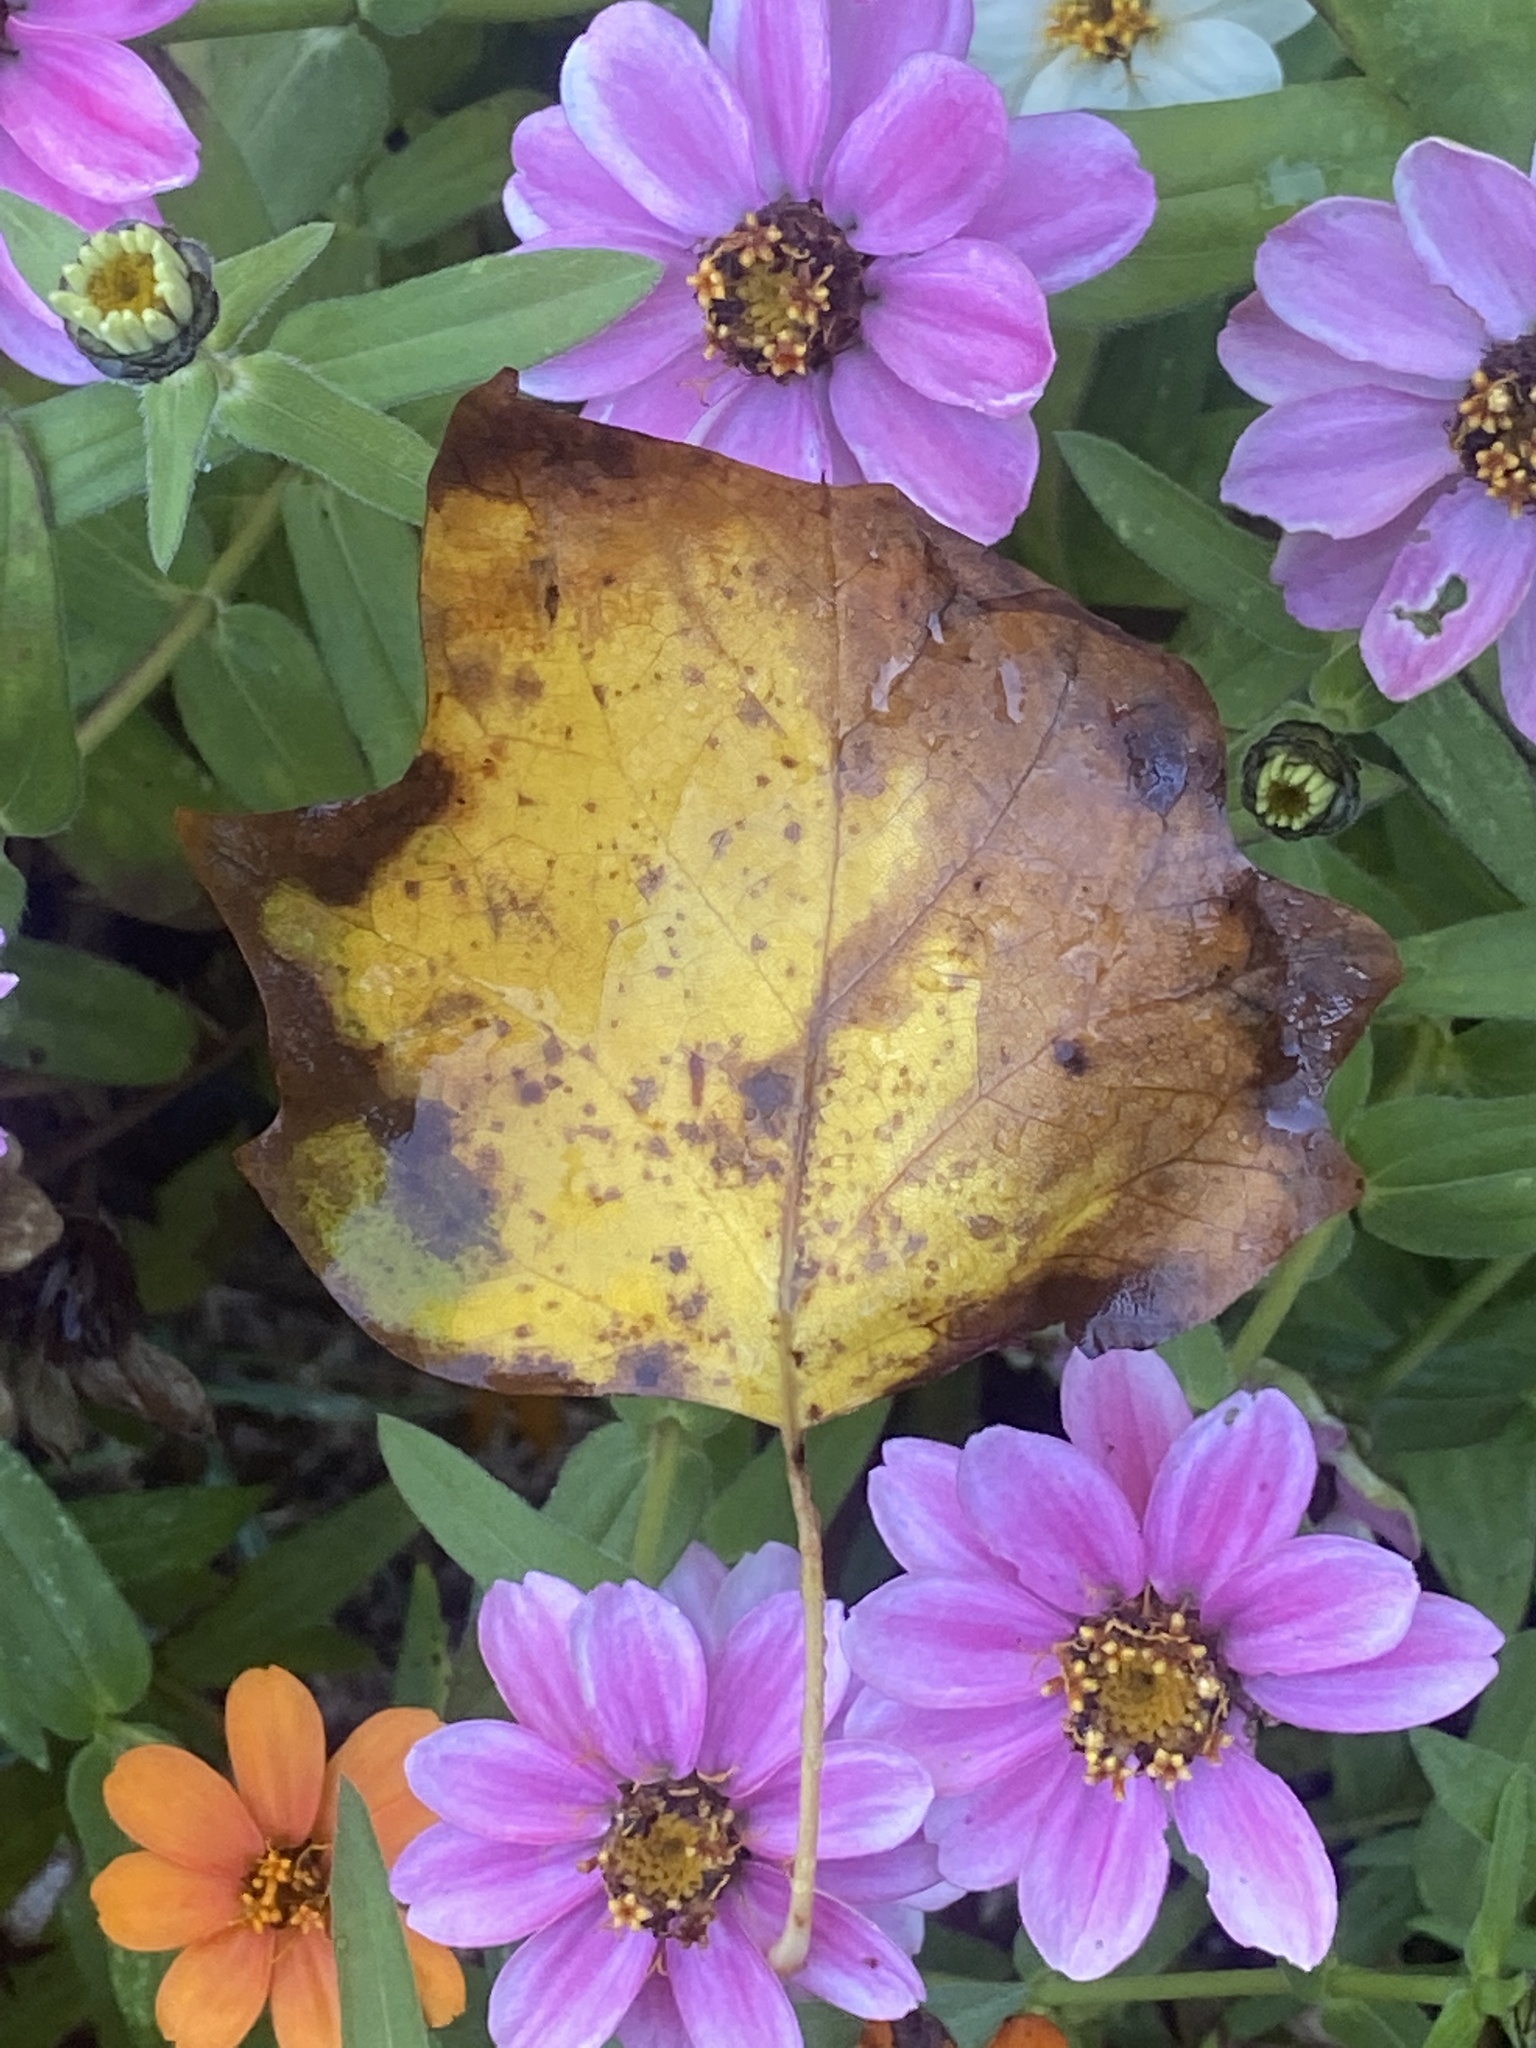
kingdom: Plantae
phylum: Tracheophyta
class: Magnoliopsida
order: Magnoliales
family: Magnoliaceae
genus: Liriodendron
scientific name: Liriodendron tulipifera
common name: Tulip tree
